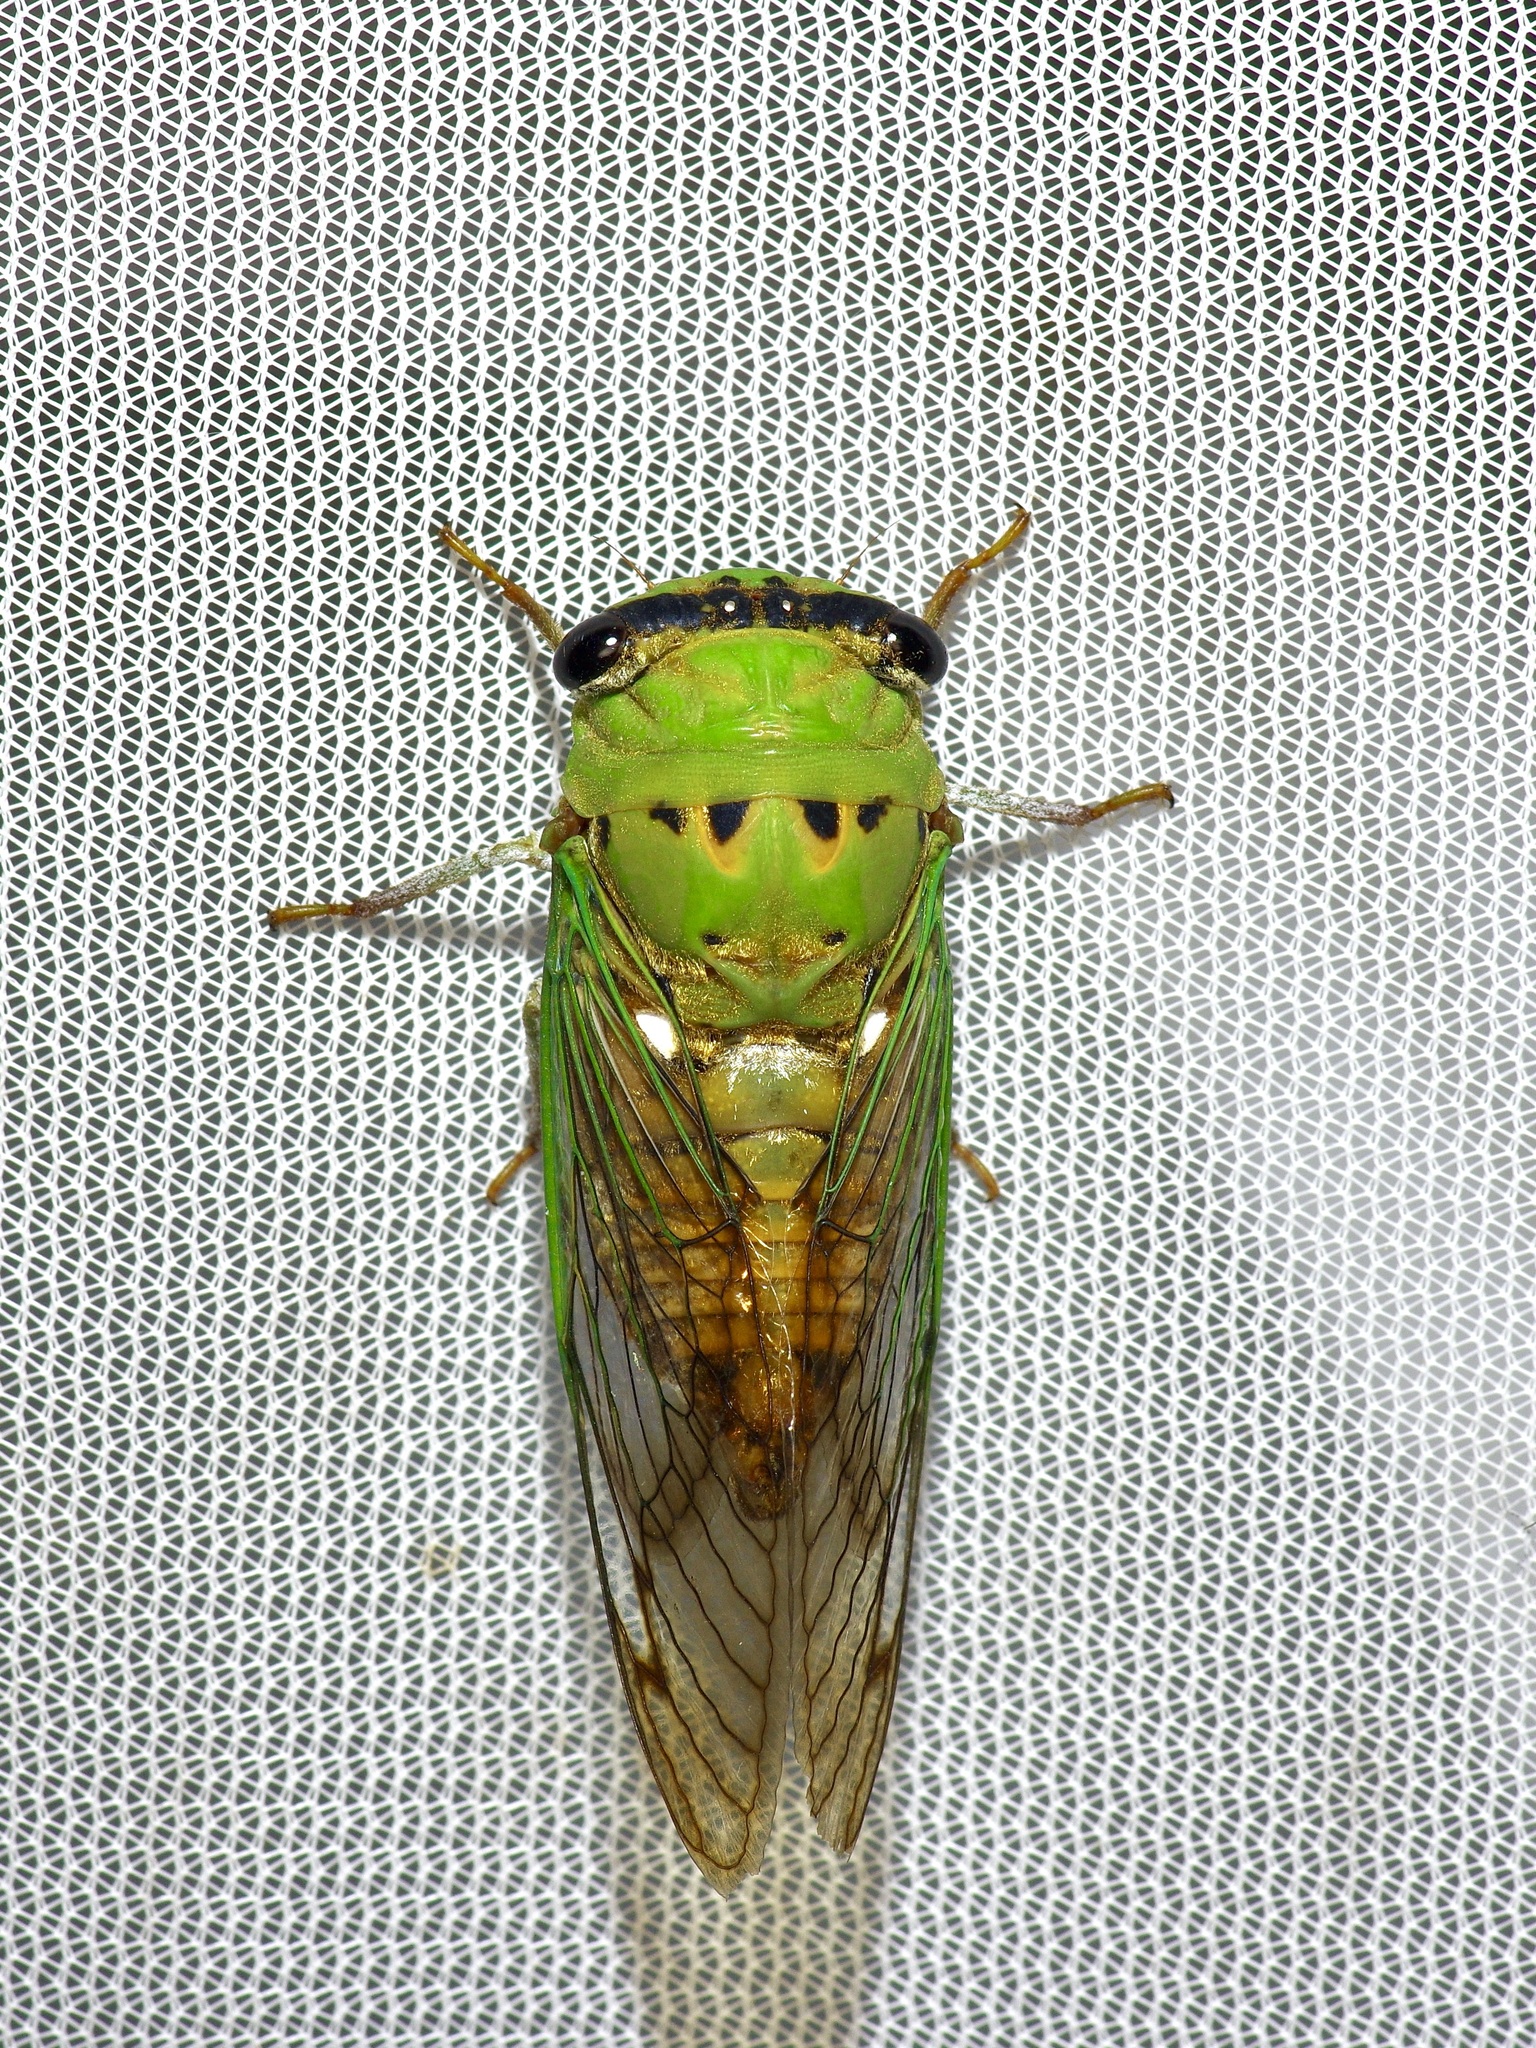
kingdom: Animalia
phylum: Arthropoda
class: Insecta
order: Hemiptera
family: Cicadidae
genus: Neotibicen
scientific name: Neotibicen superbus
